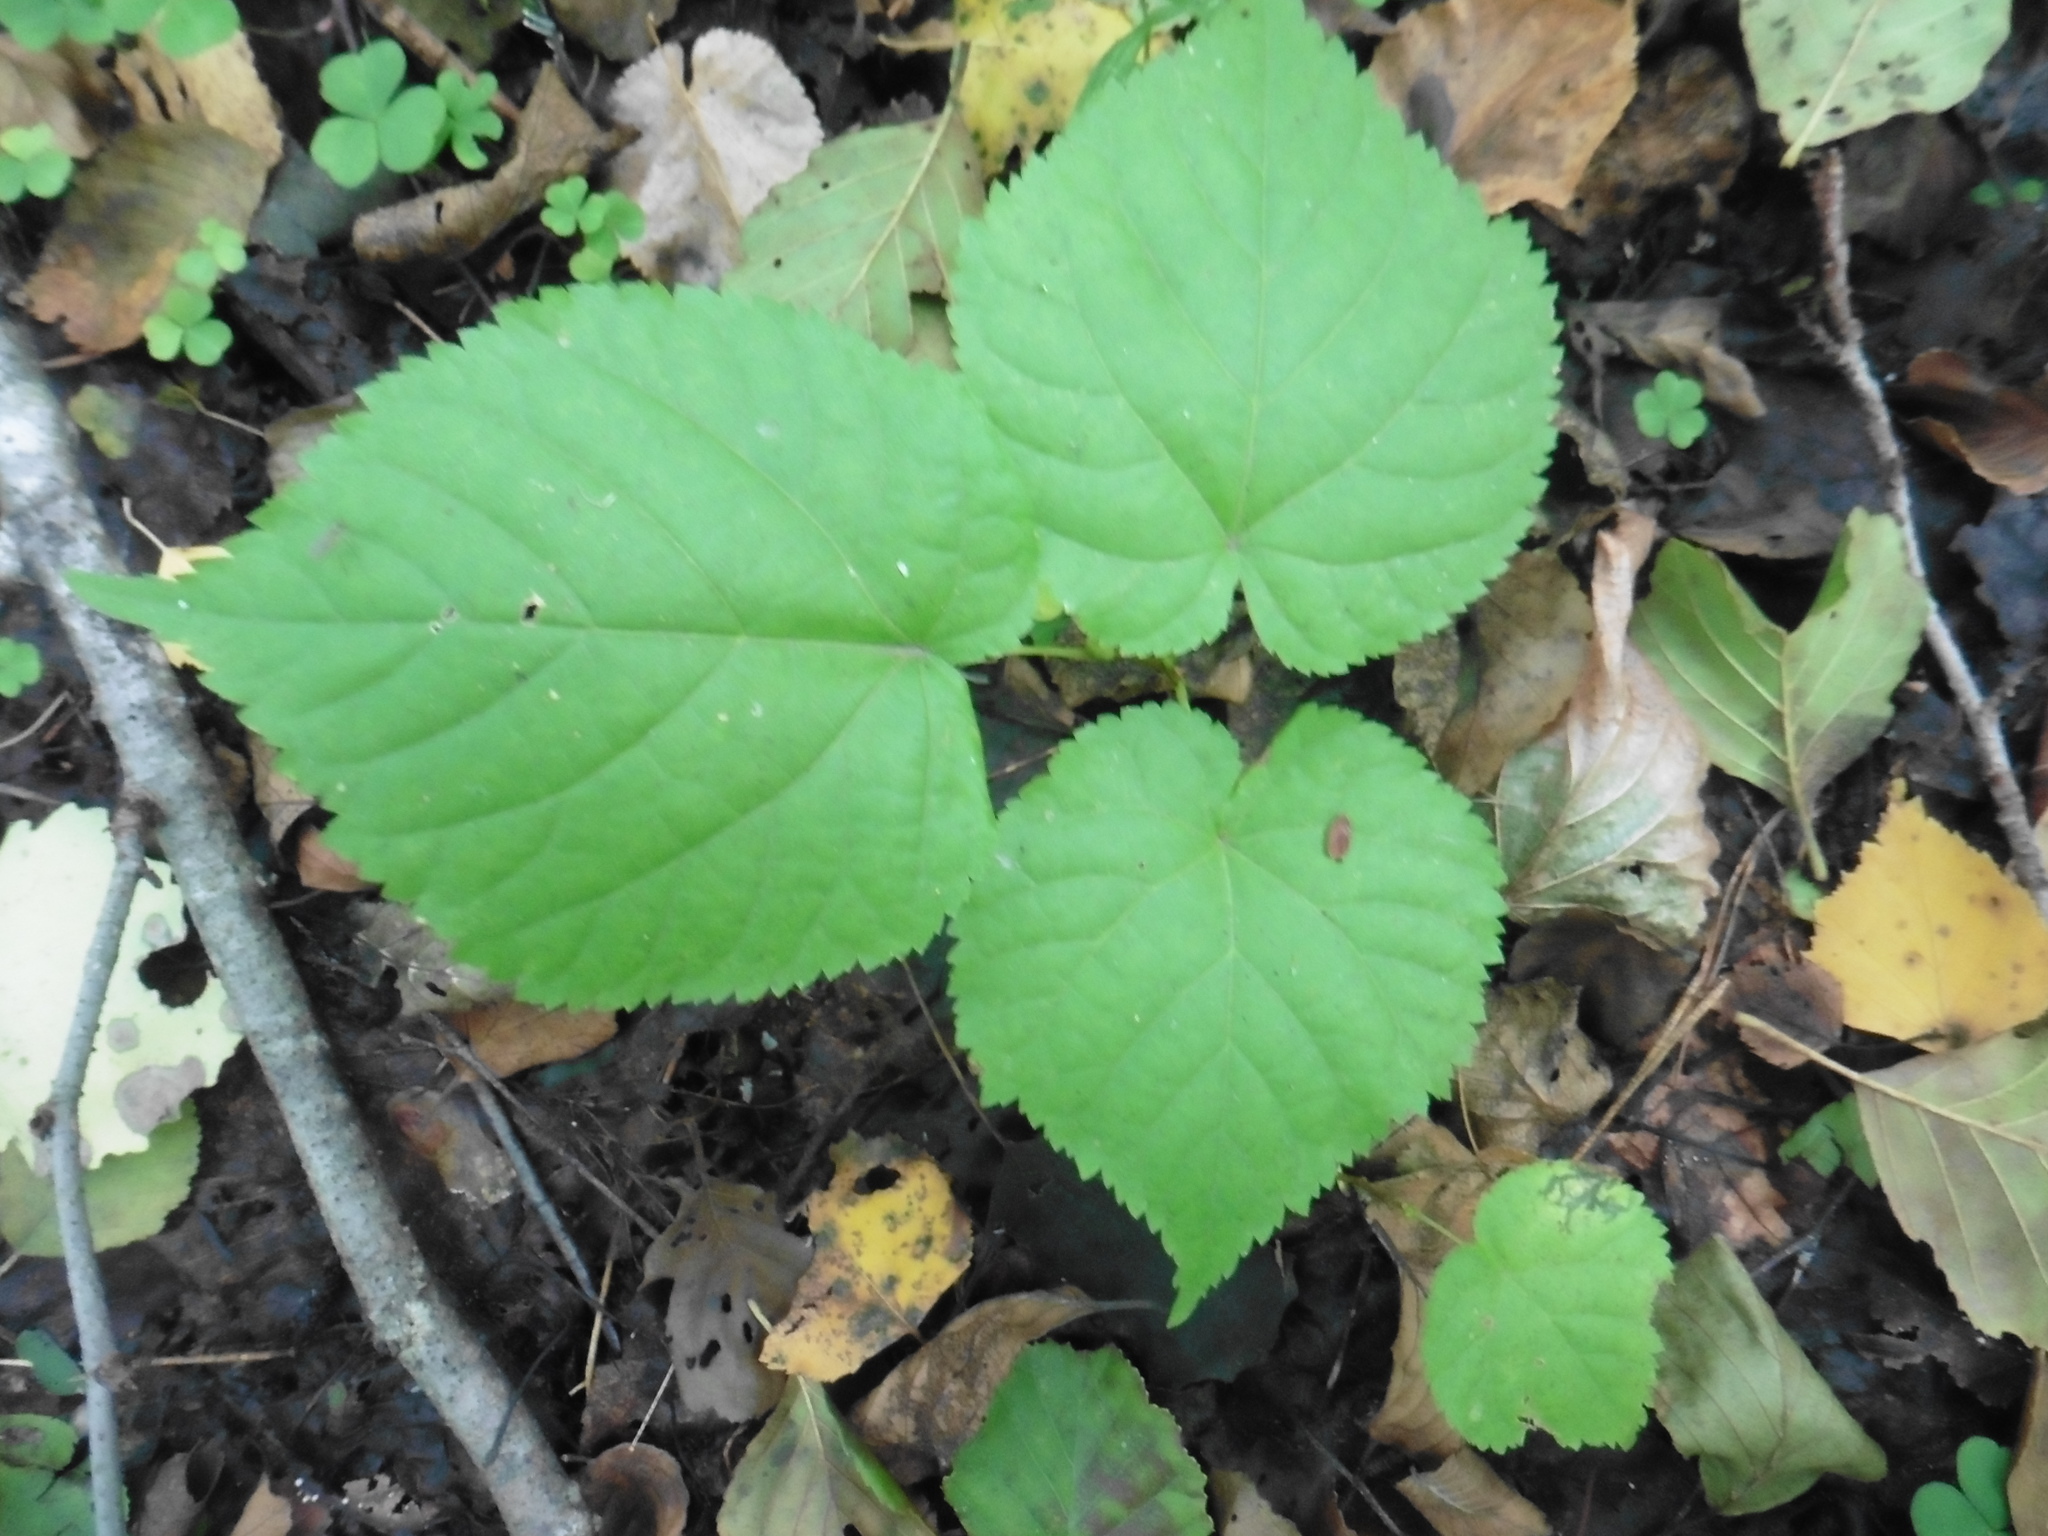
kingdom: Plantae
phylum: Tracheophyta
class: Magnoliopsida
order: Malvales
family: Malvaceae
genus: Tilia
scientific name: Tilia cordata
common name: Small-leaved lime
